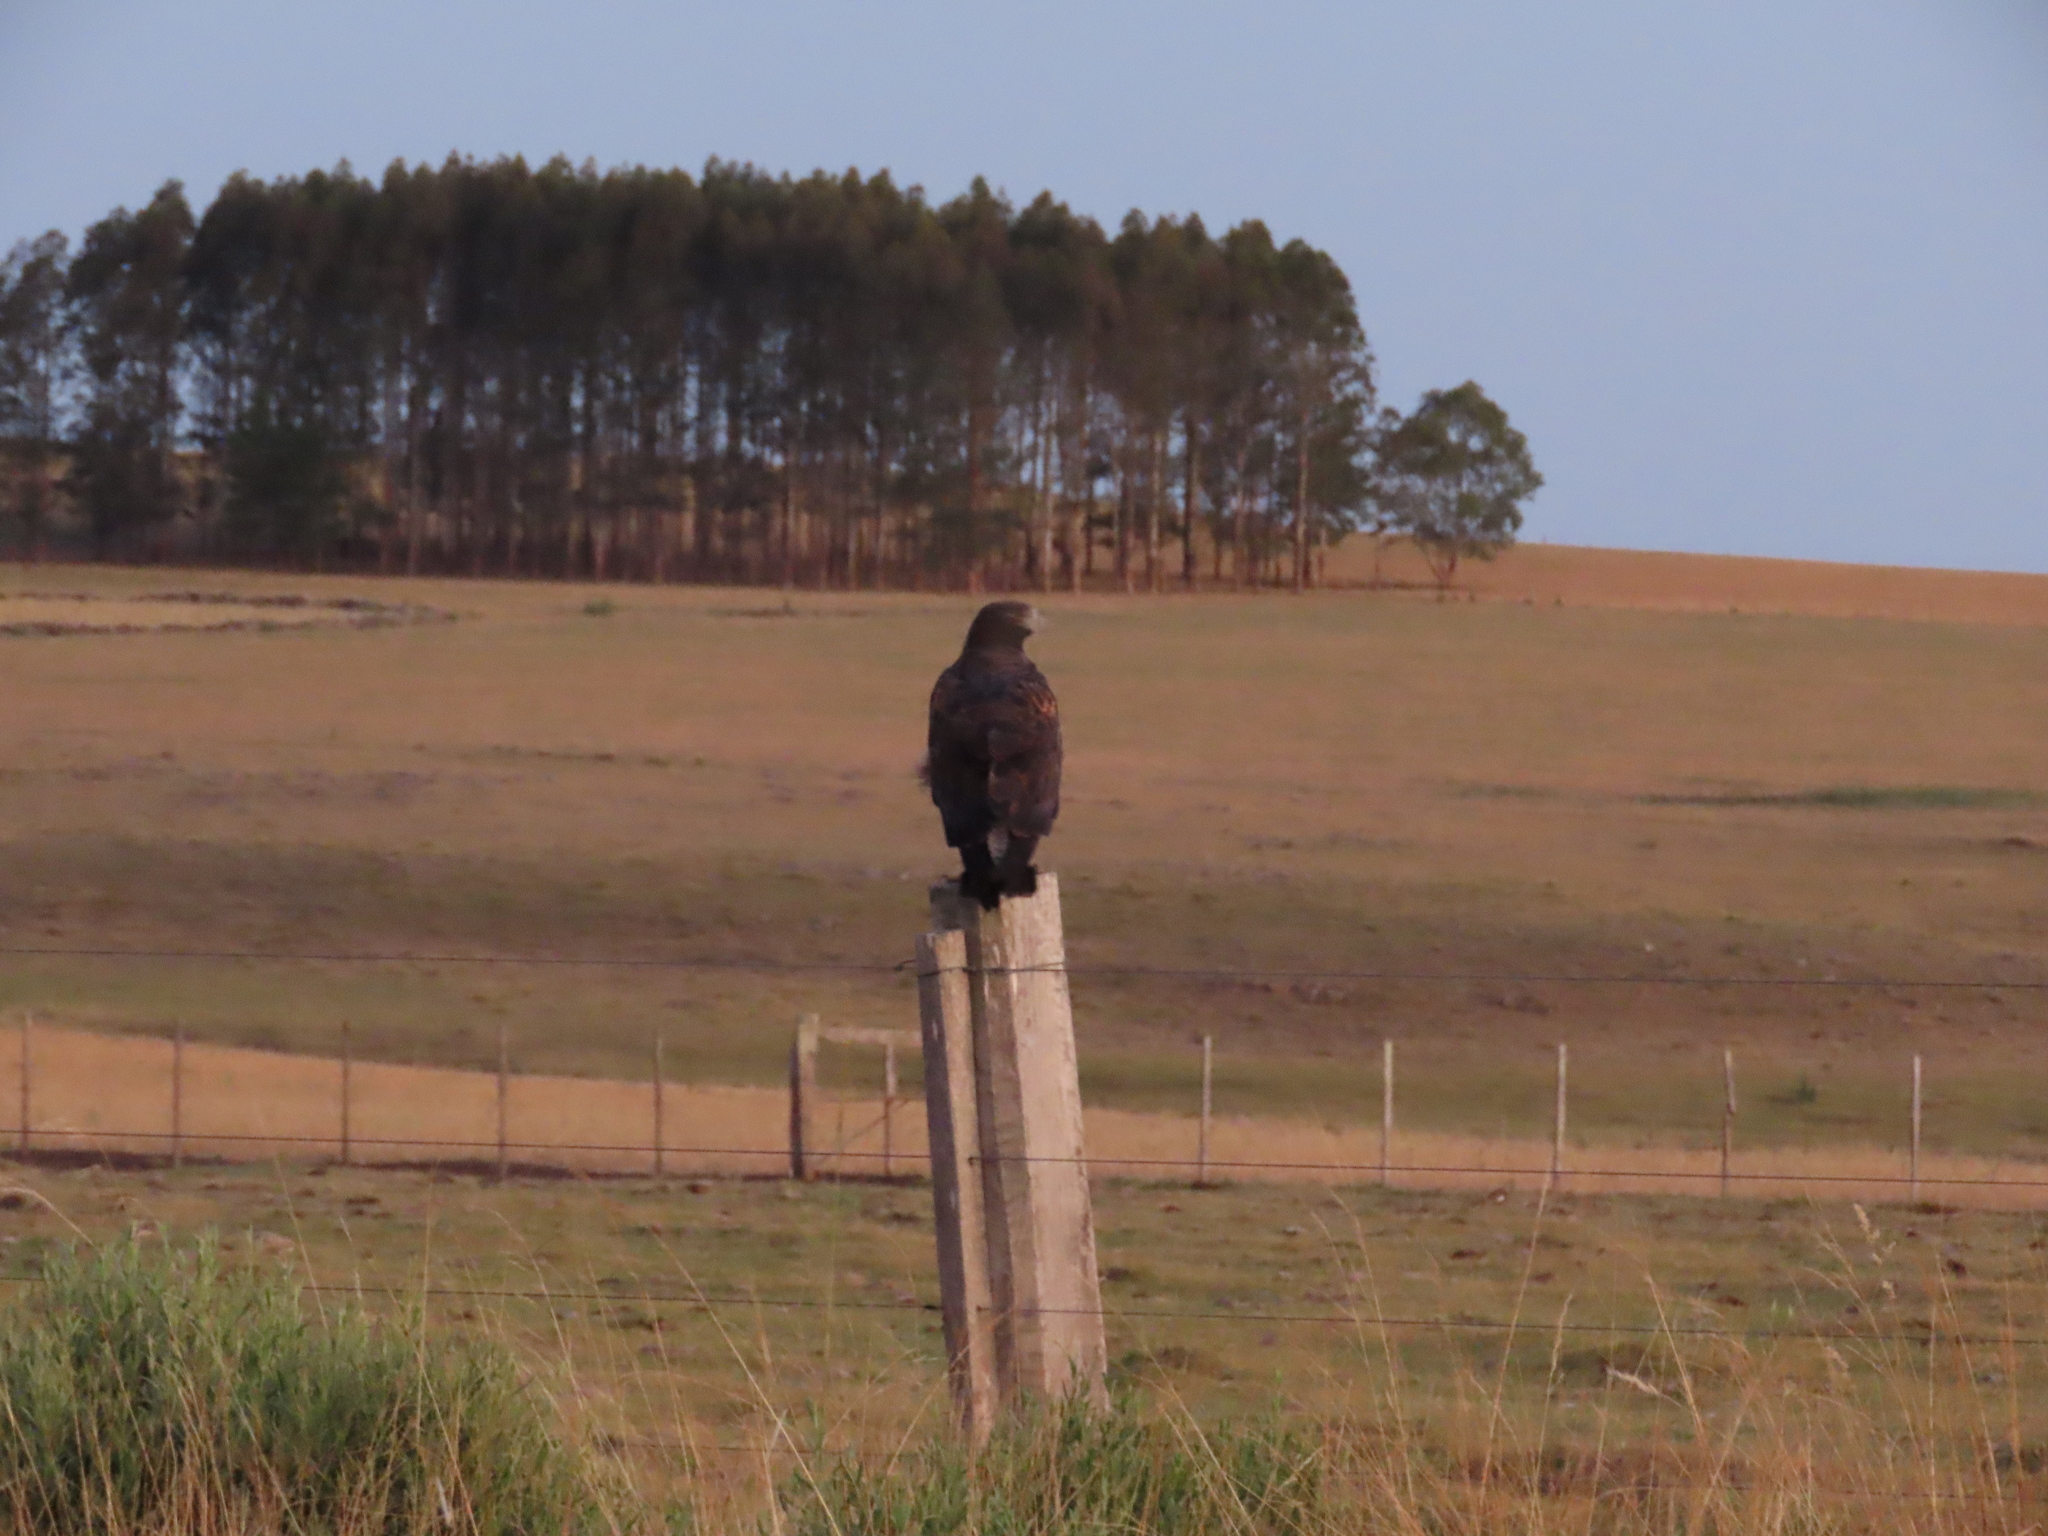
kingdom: Animalia
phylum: Chordata
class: Aves
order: Accipitriformes
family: Accipitridae
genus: Buteo
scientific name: Buteo albicaudatus
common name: White-tailed hawk
